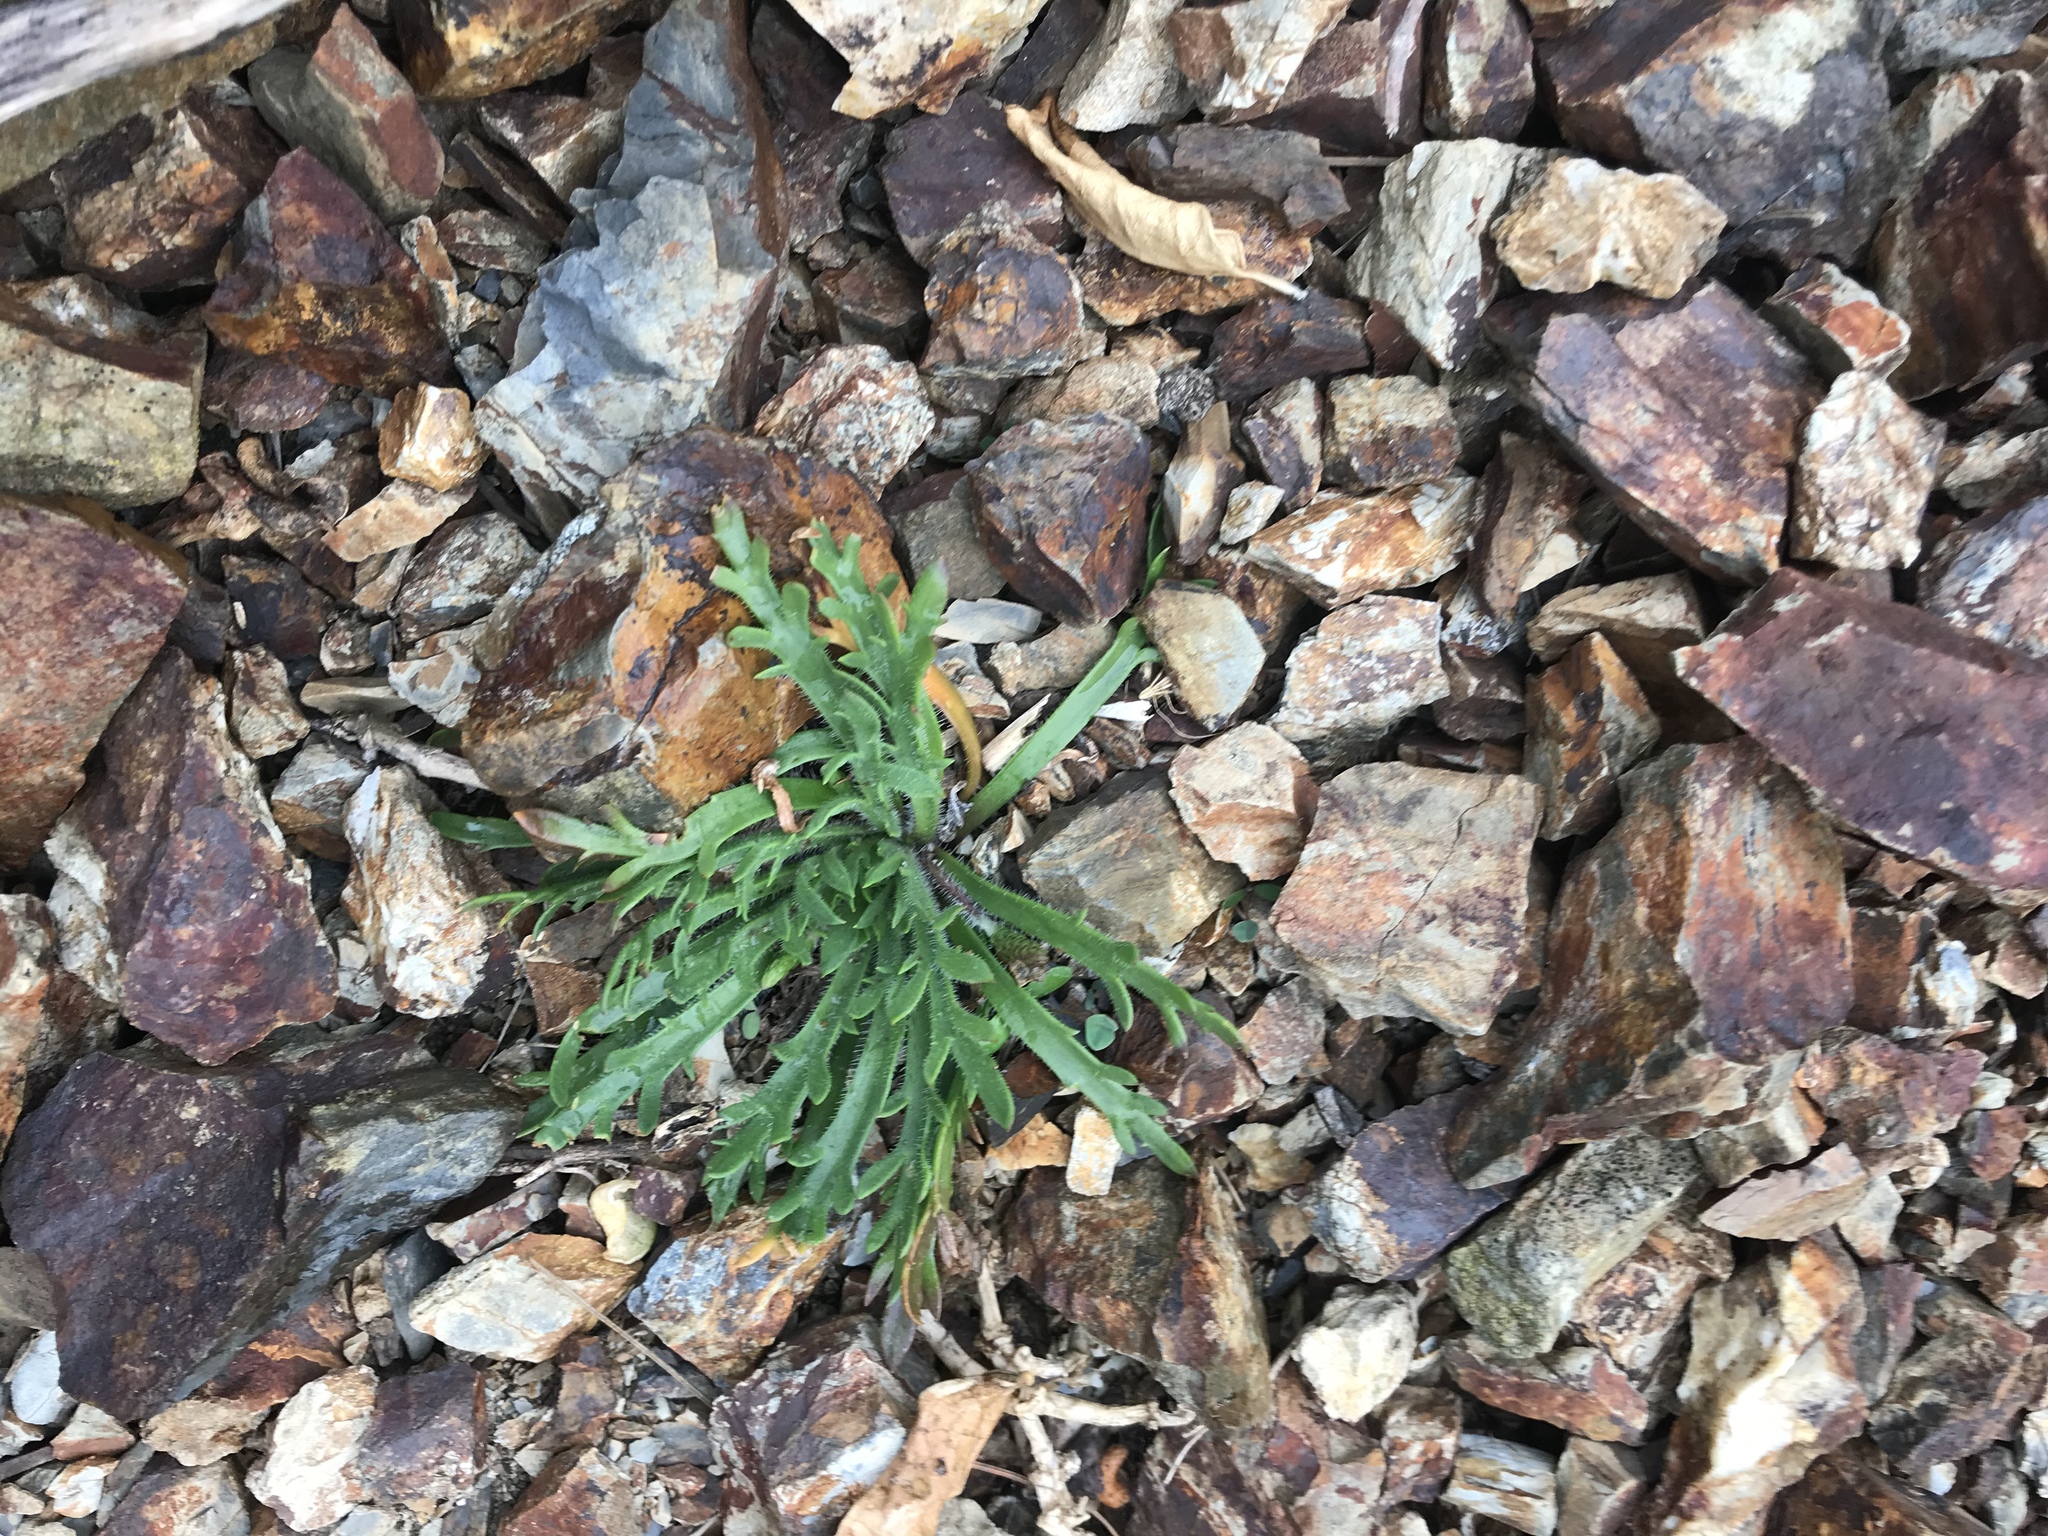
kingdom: Plantae
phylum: Tracheophyta
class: Magnoliopsida
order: Lamiales
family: Plantaginaceae
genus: Plantago
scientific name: Plantago coronopus
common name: Buck's-horn plantain
